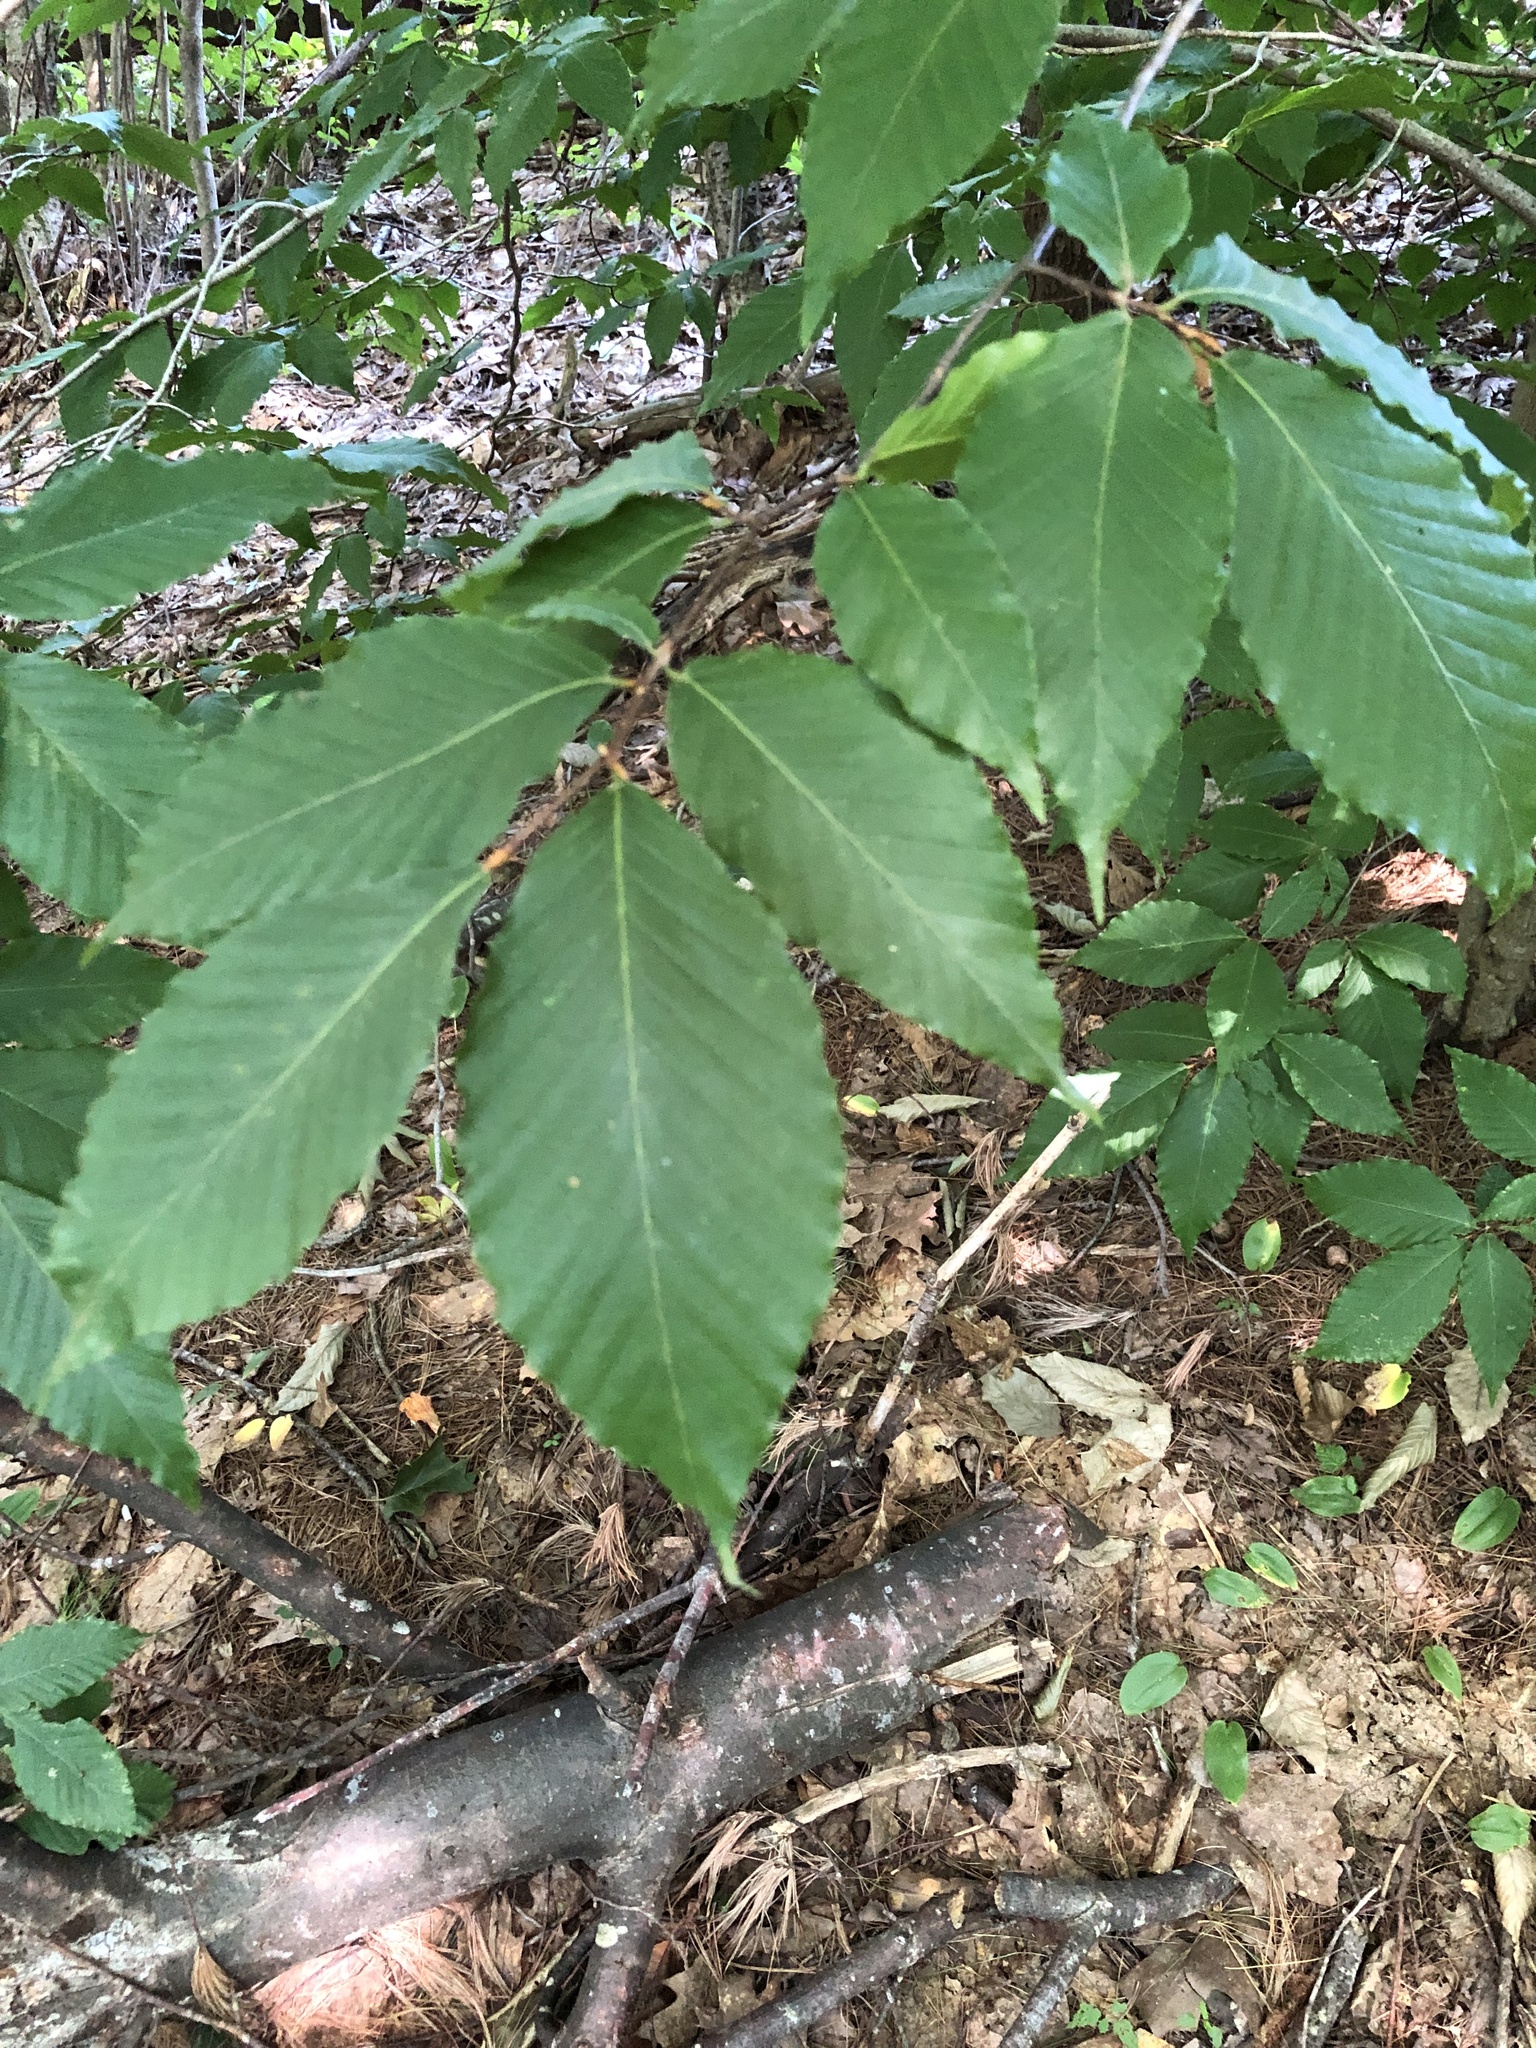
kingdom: Plantae
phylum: Tracheophyta
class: Magnoliopsida
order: Fagales
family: Fagaceae
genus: Fagus
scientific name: Fagus grandifolia
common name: American beech
